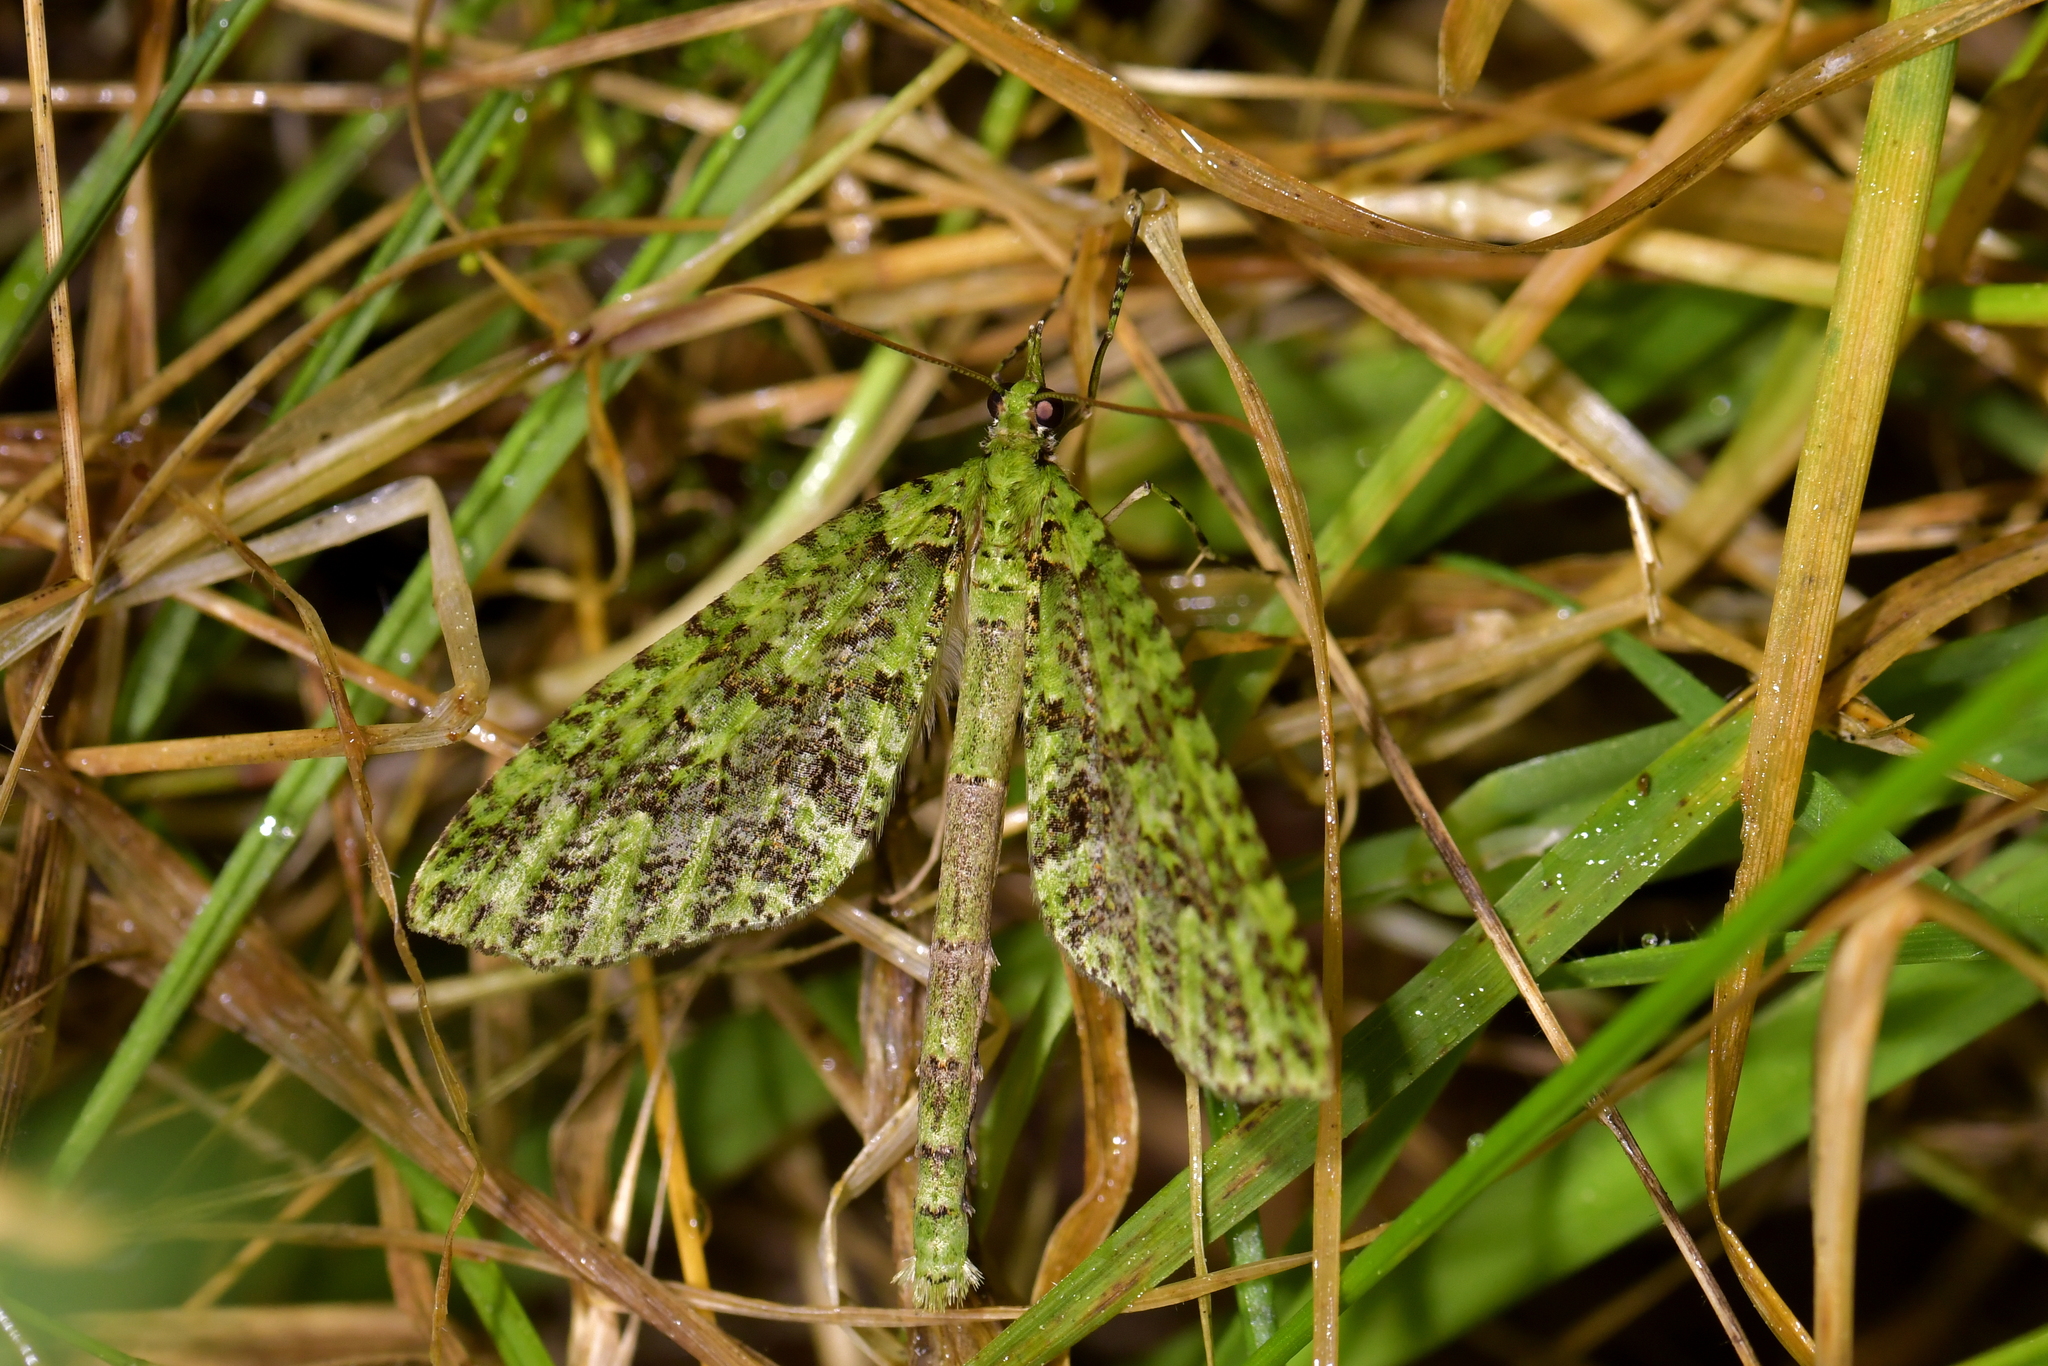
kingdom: Animalia
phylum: Arthropoda
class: Insecta
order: Lepidoptera
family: Geometridae
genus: Tatosoma
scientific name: Tatosoma tipulata
